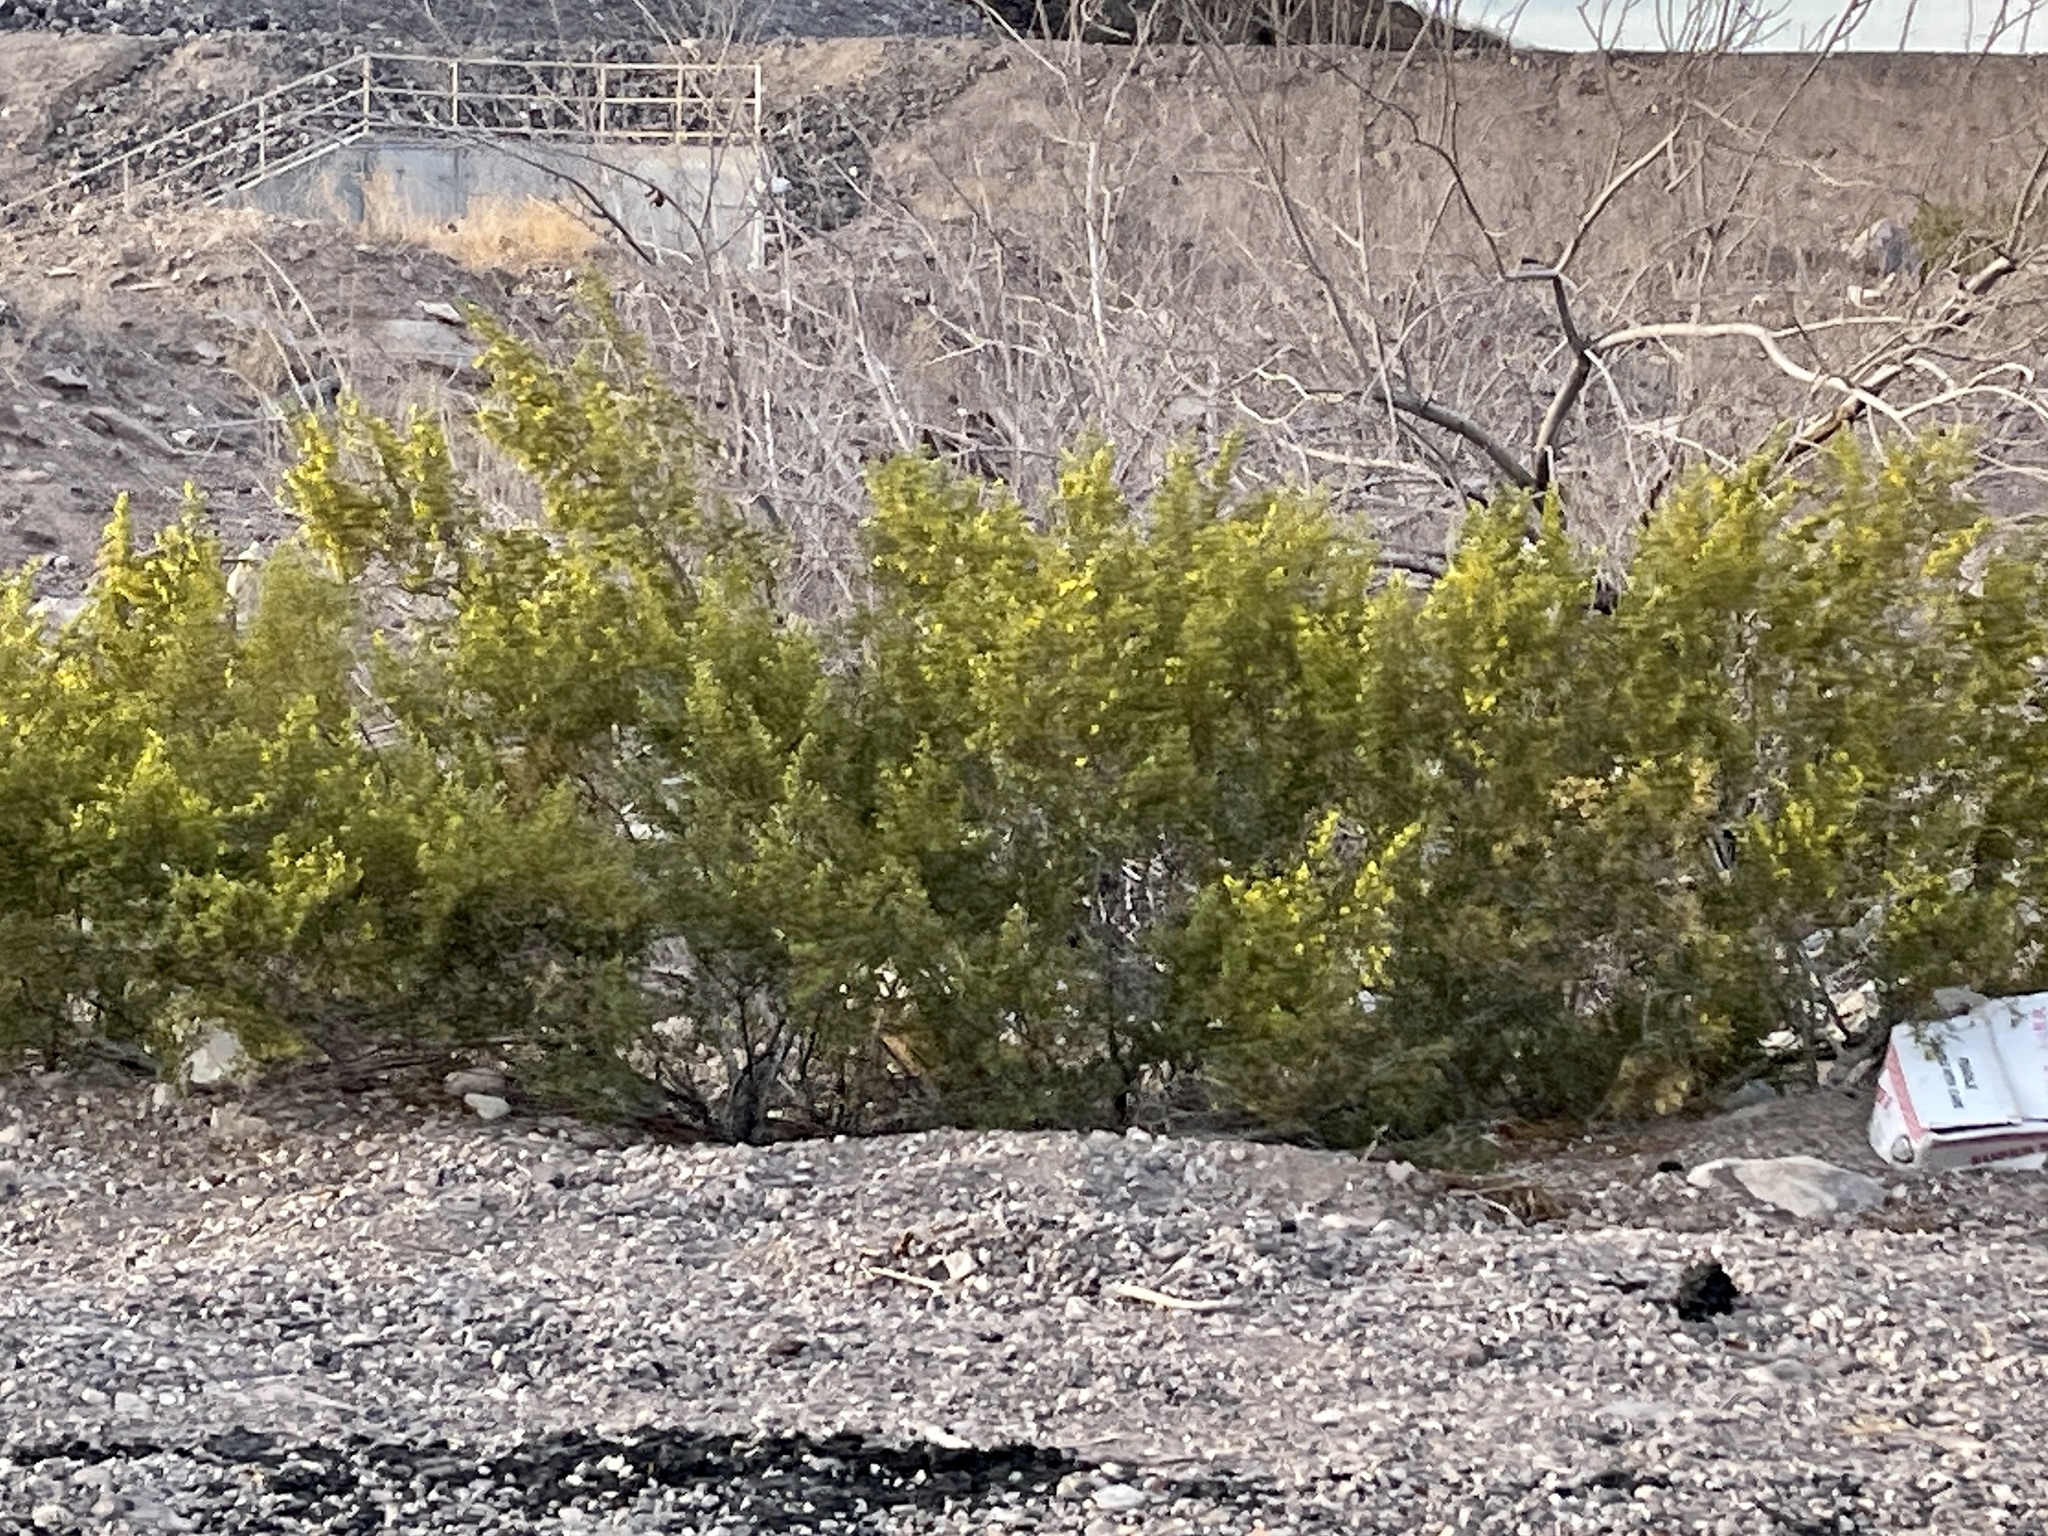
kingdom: Plantae
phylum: Tracheophyta
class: Magnoliopsida
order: Zygophyllales
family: Zygophyllaceae
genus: Larrea
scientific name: Larrea tridentata
